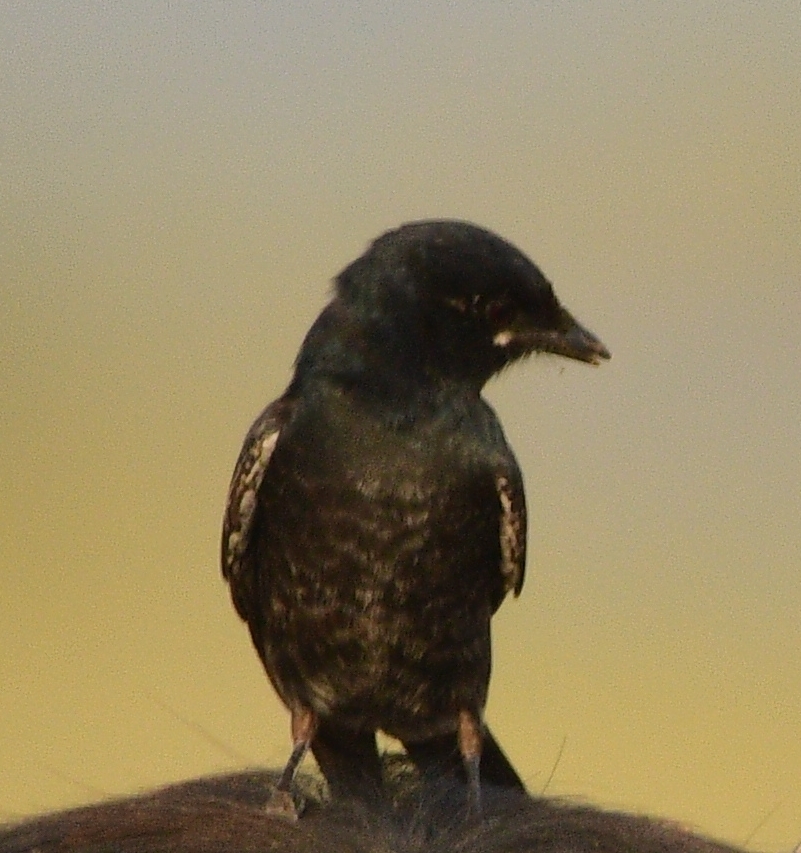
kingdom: Animalia
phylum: Chordata
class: Aves
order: Passeriformes
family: Dicruridae
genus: Dicrurus
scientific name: Dicrurus macrocercus
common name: Black drongo
